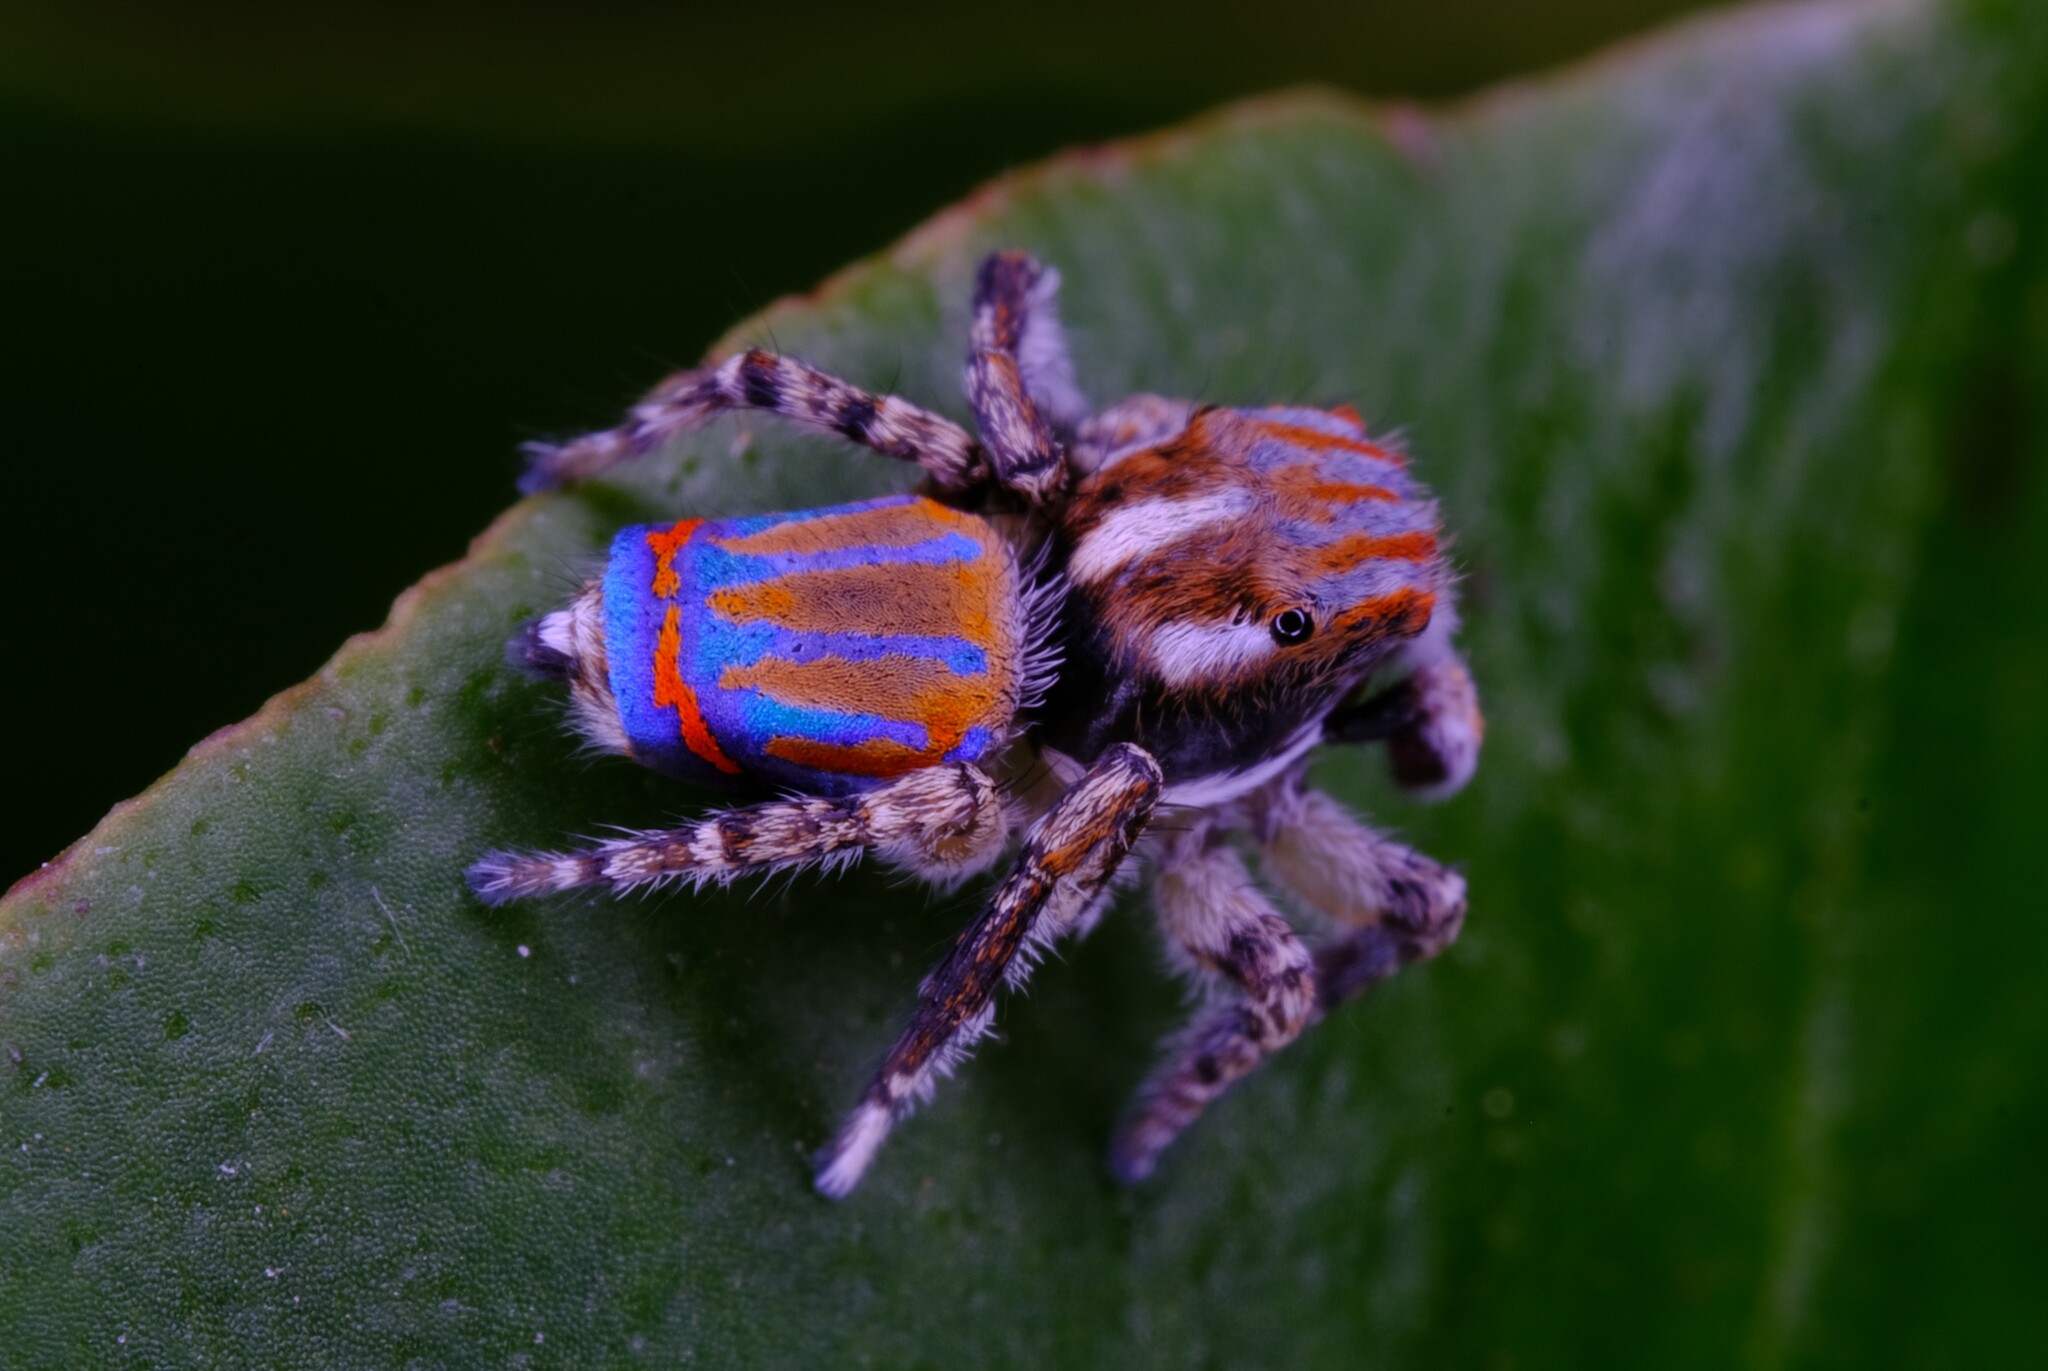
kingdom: Animalia
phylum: Arthropoda
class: Arachnida
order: Araneae
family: Salticidae
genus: Maratus
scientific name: Maratus tasmanicus
